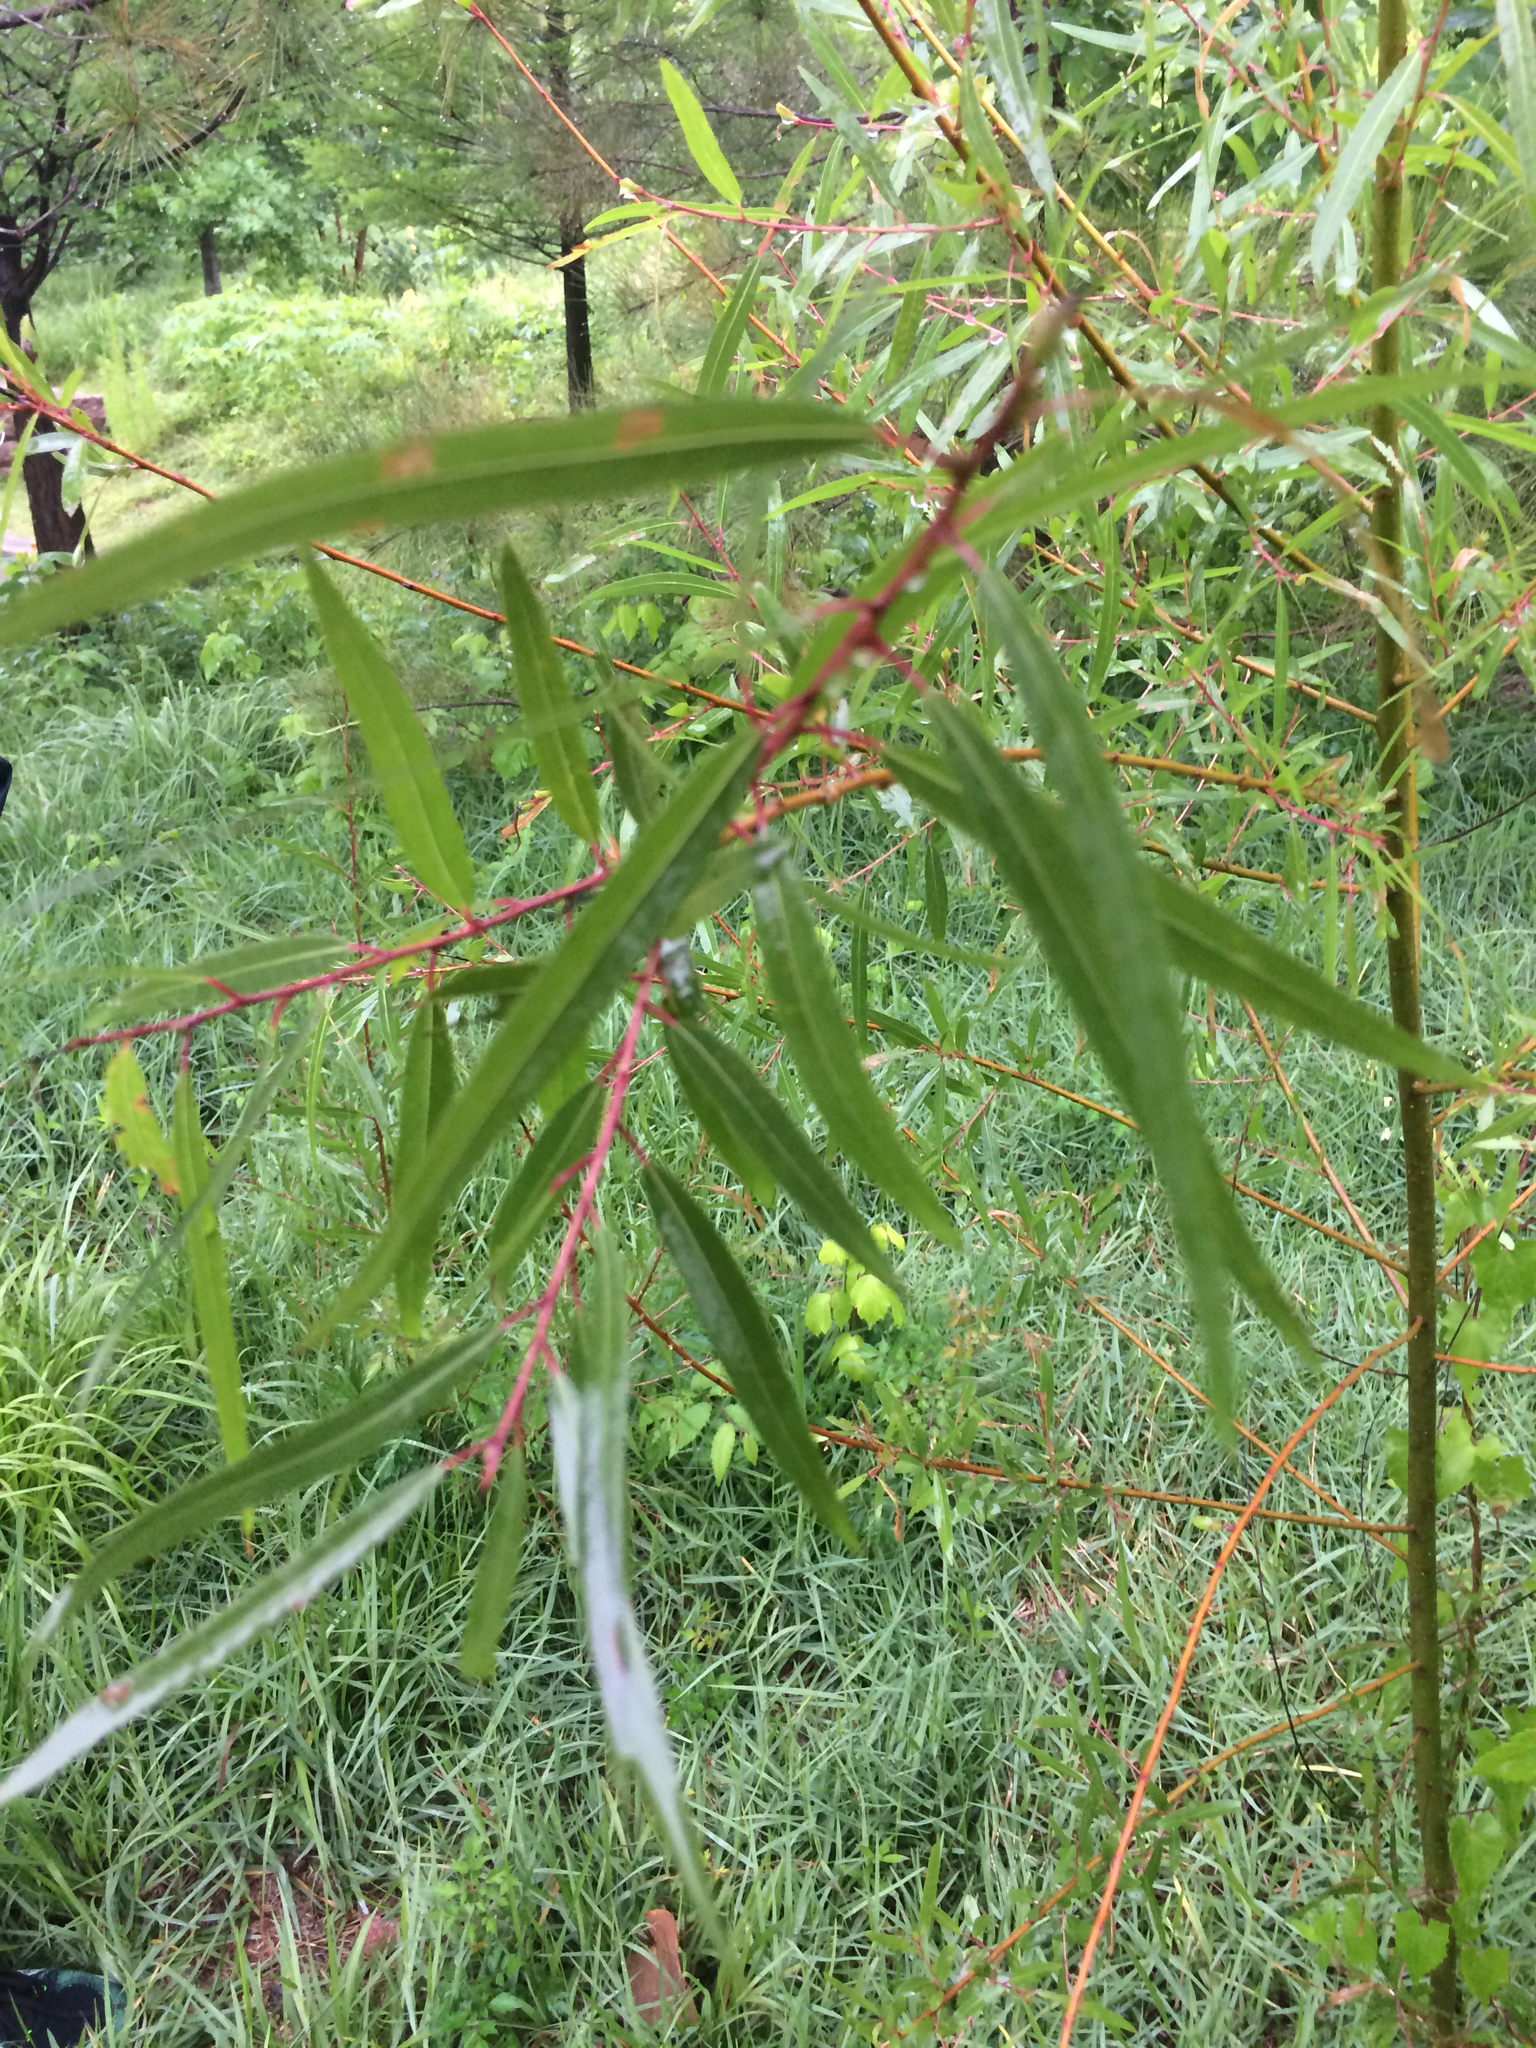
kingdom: Plantae
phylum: Tracheophyta
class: Magnoliopsida
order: Malpighiales
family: Salicaceae
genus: Salix
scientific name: Salix nigra
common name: Black willow
